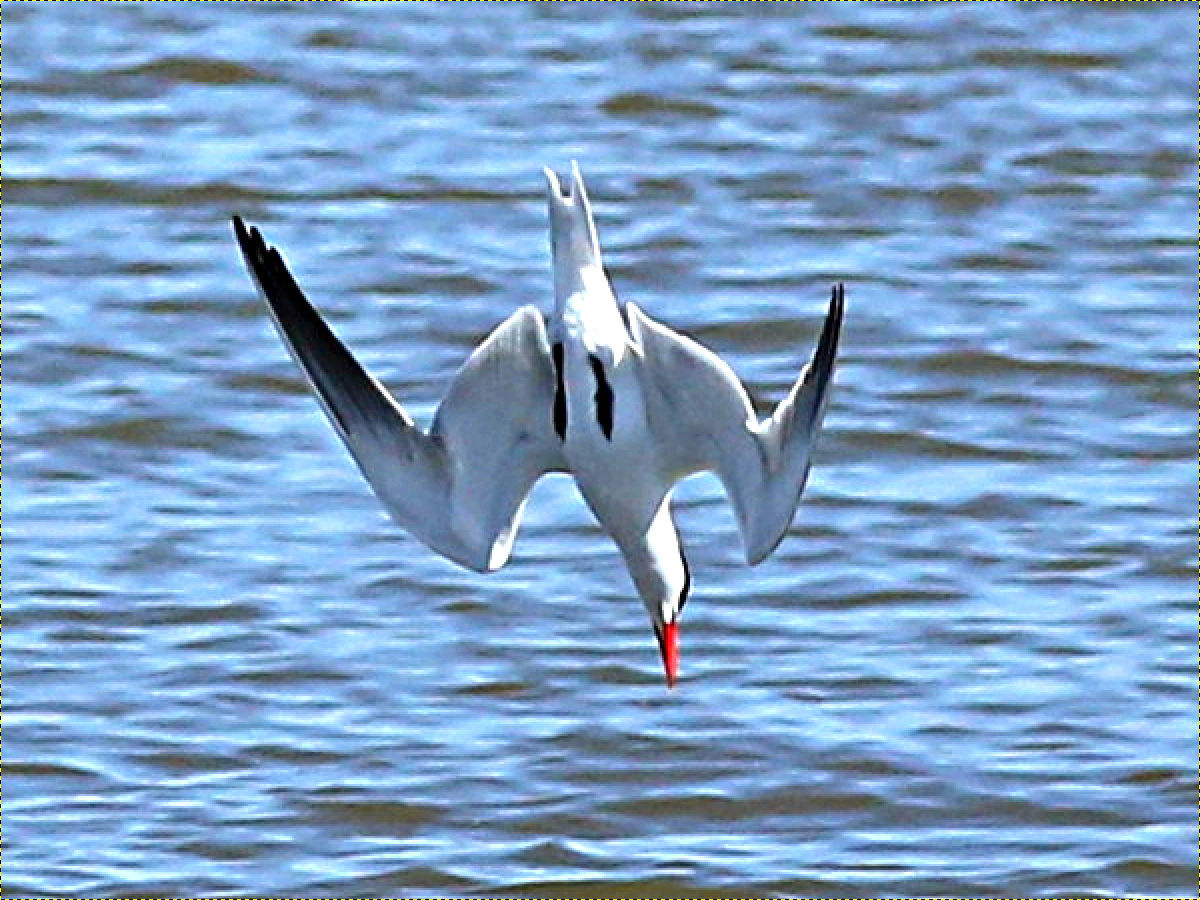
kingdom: Animalia
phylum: Chordata
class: Aves
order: Charadriiformes
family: Laridae
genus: Hydroprogne
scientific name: Hydroprogne caspia
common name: Caspian tern
